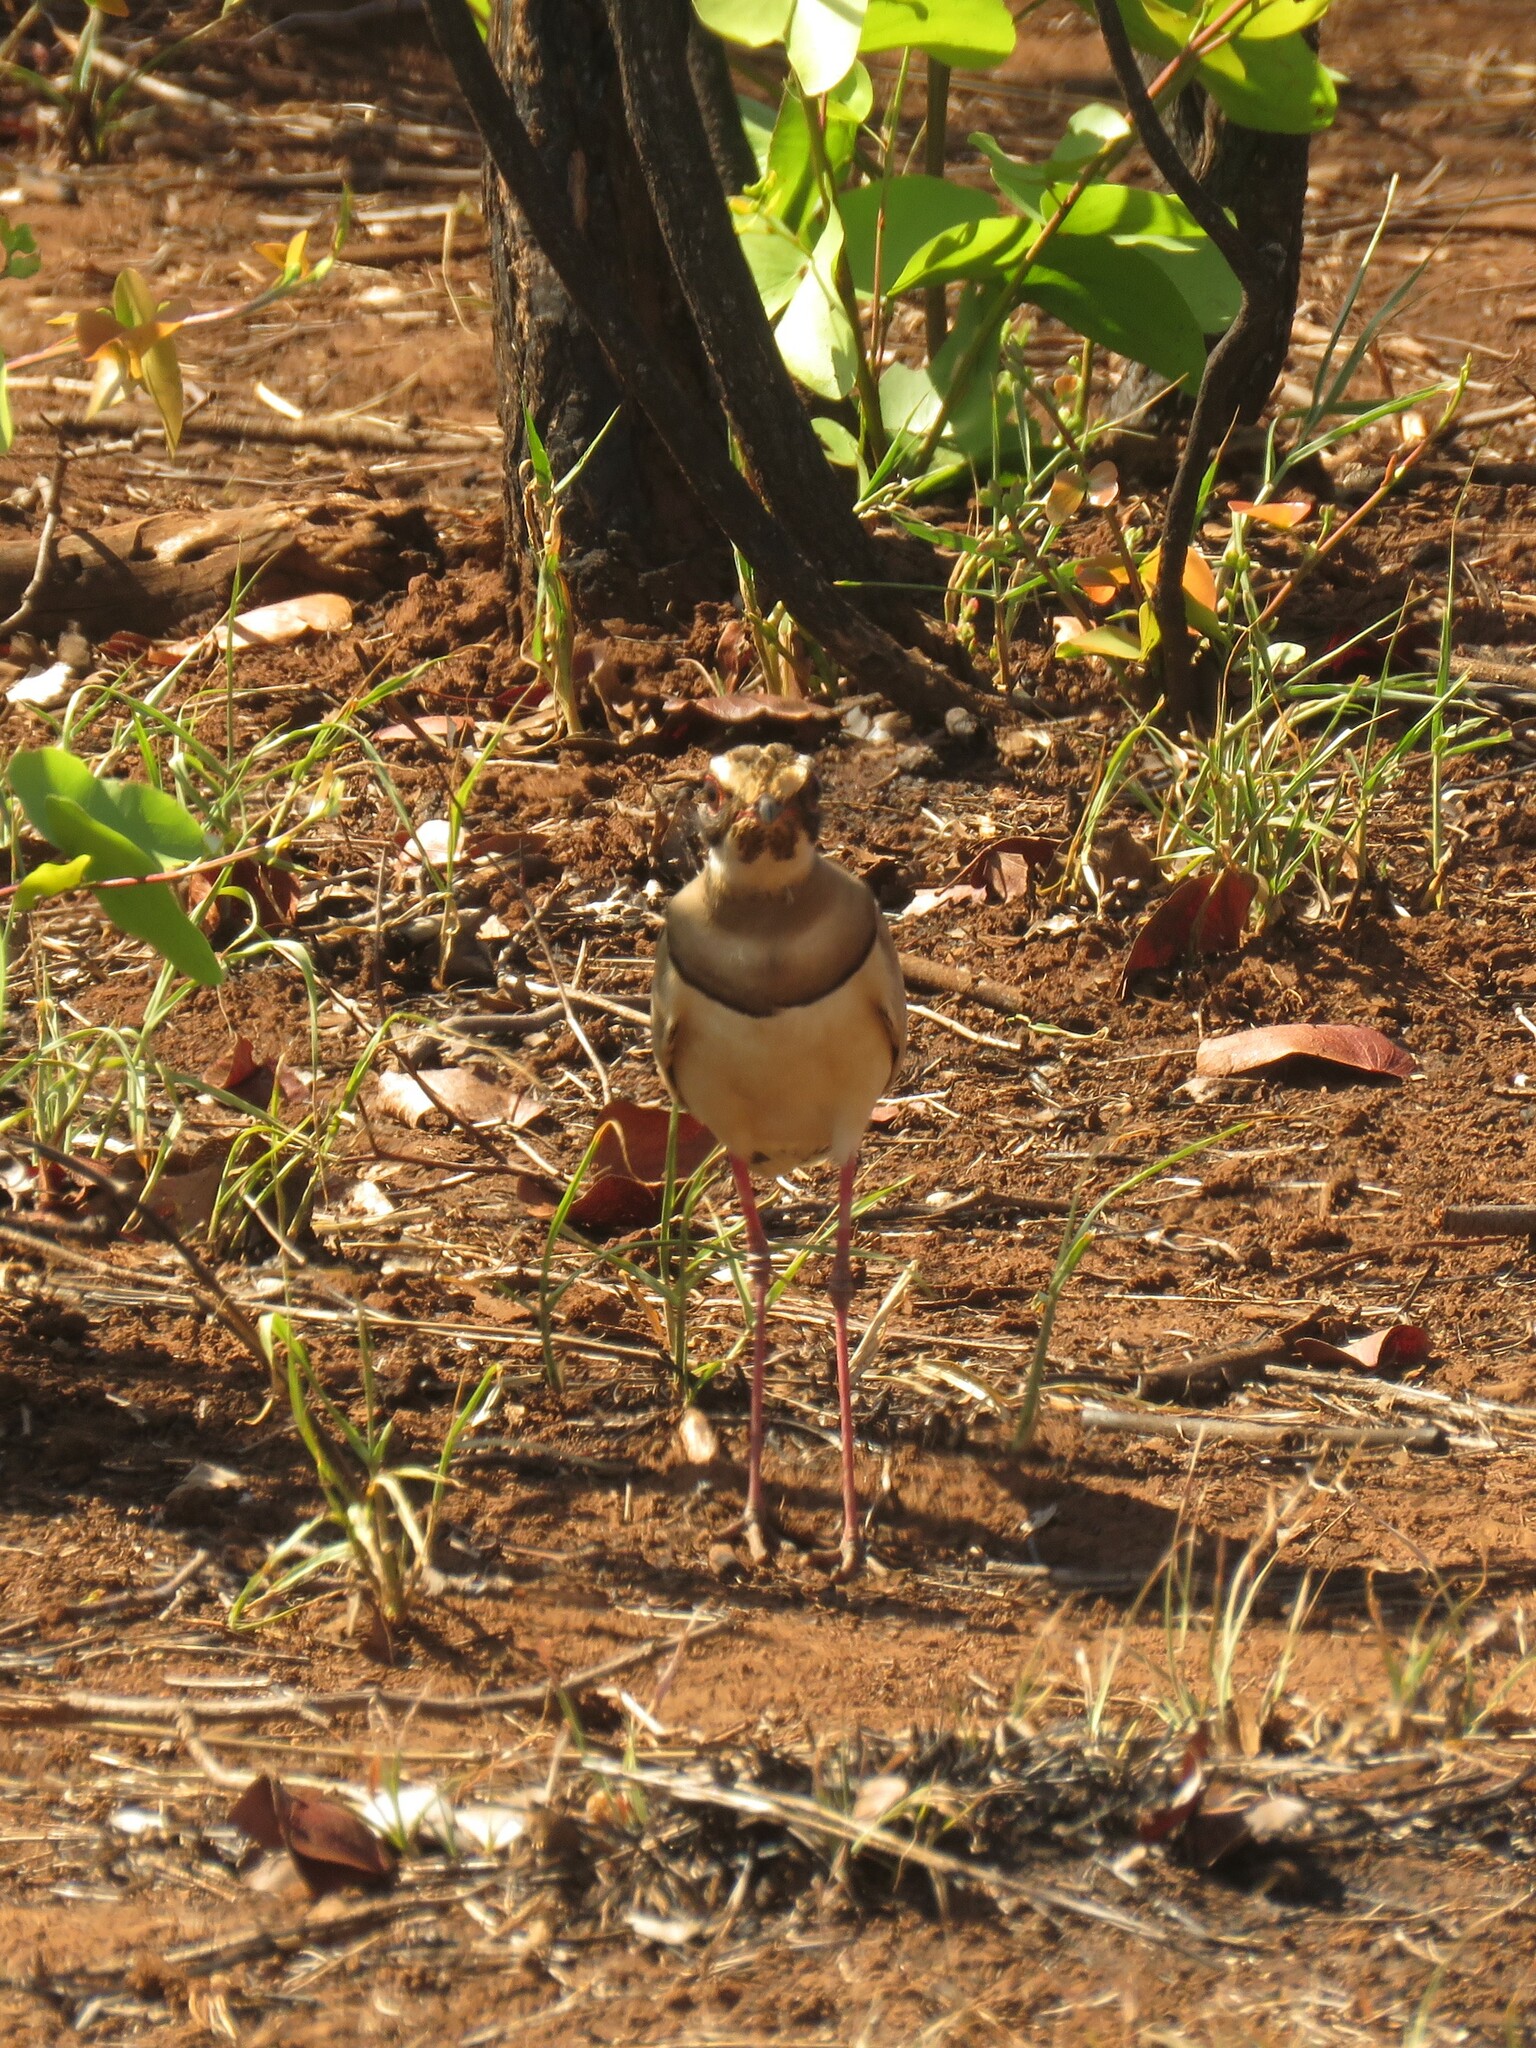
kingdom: Animalia
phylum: Chordata
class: Aves
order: Charadriiformes
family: Glareolidae
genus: Rhinoptilus
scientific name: Rhinoptilus chalcopterus
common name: Bronze-winged courser
